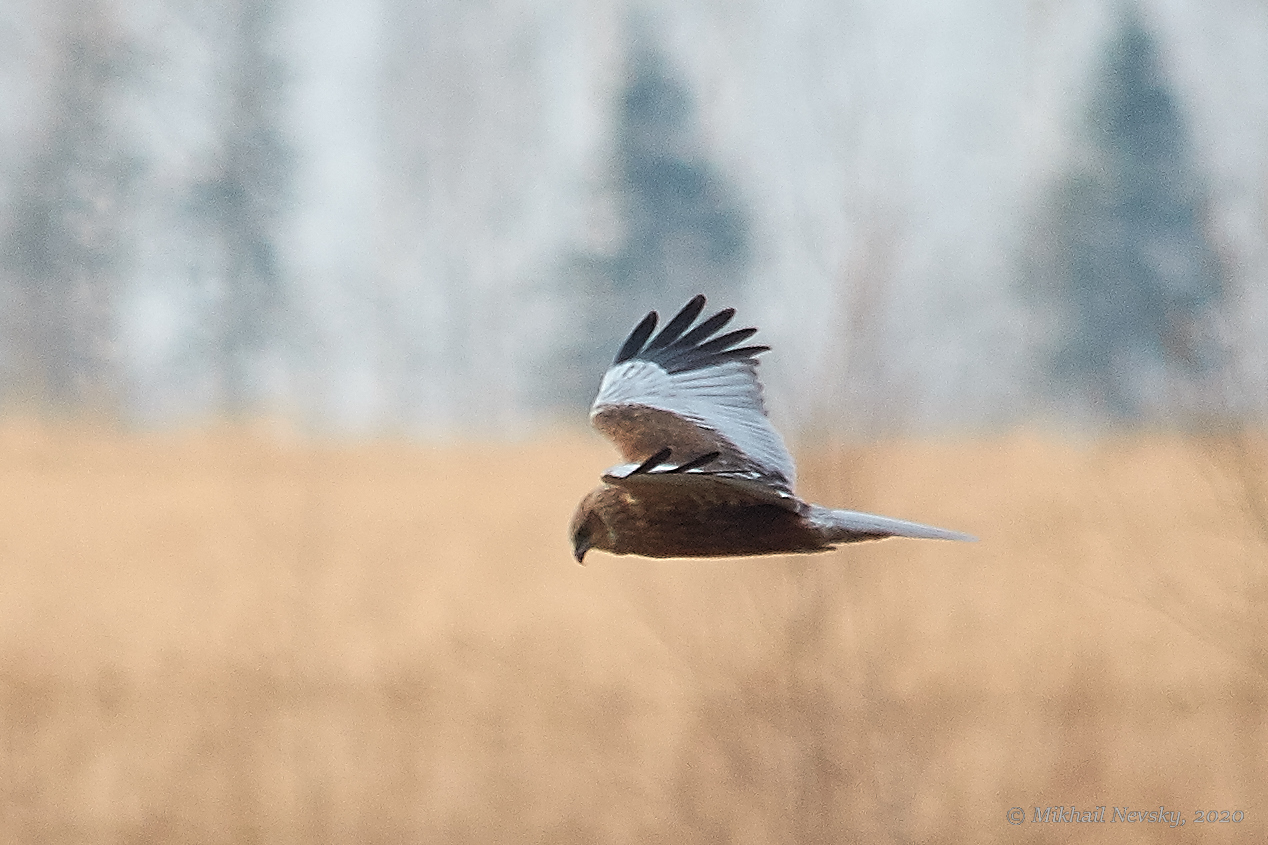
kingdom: Animalia
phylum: Chordata
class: Aves
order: Accipitriformes
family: Accipitridae
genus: Circus
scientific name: Circus aeruginosus
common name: Western marsh harrier
